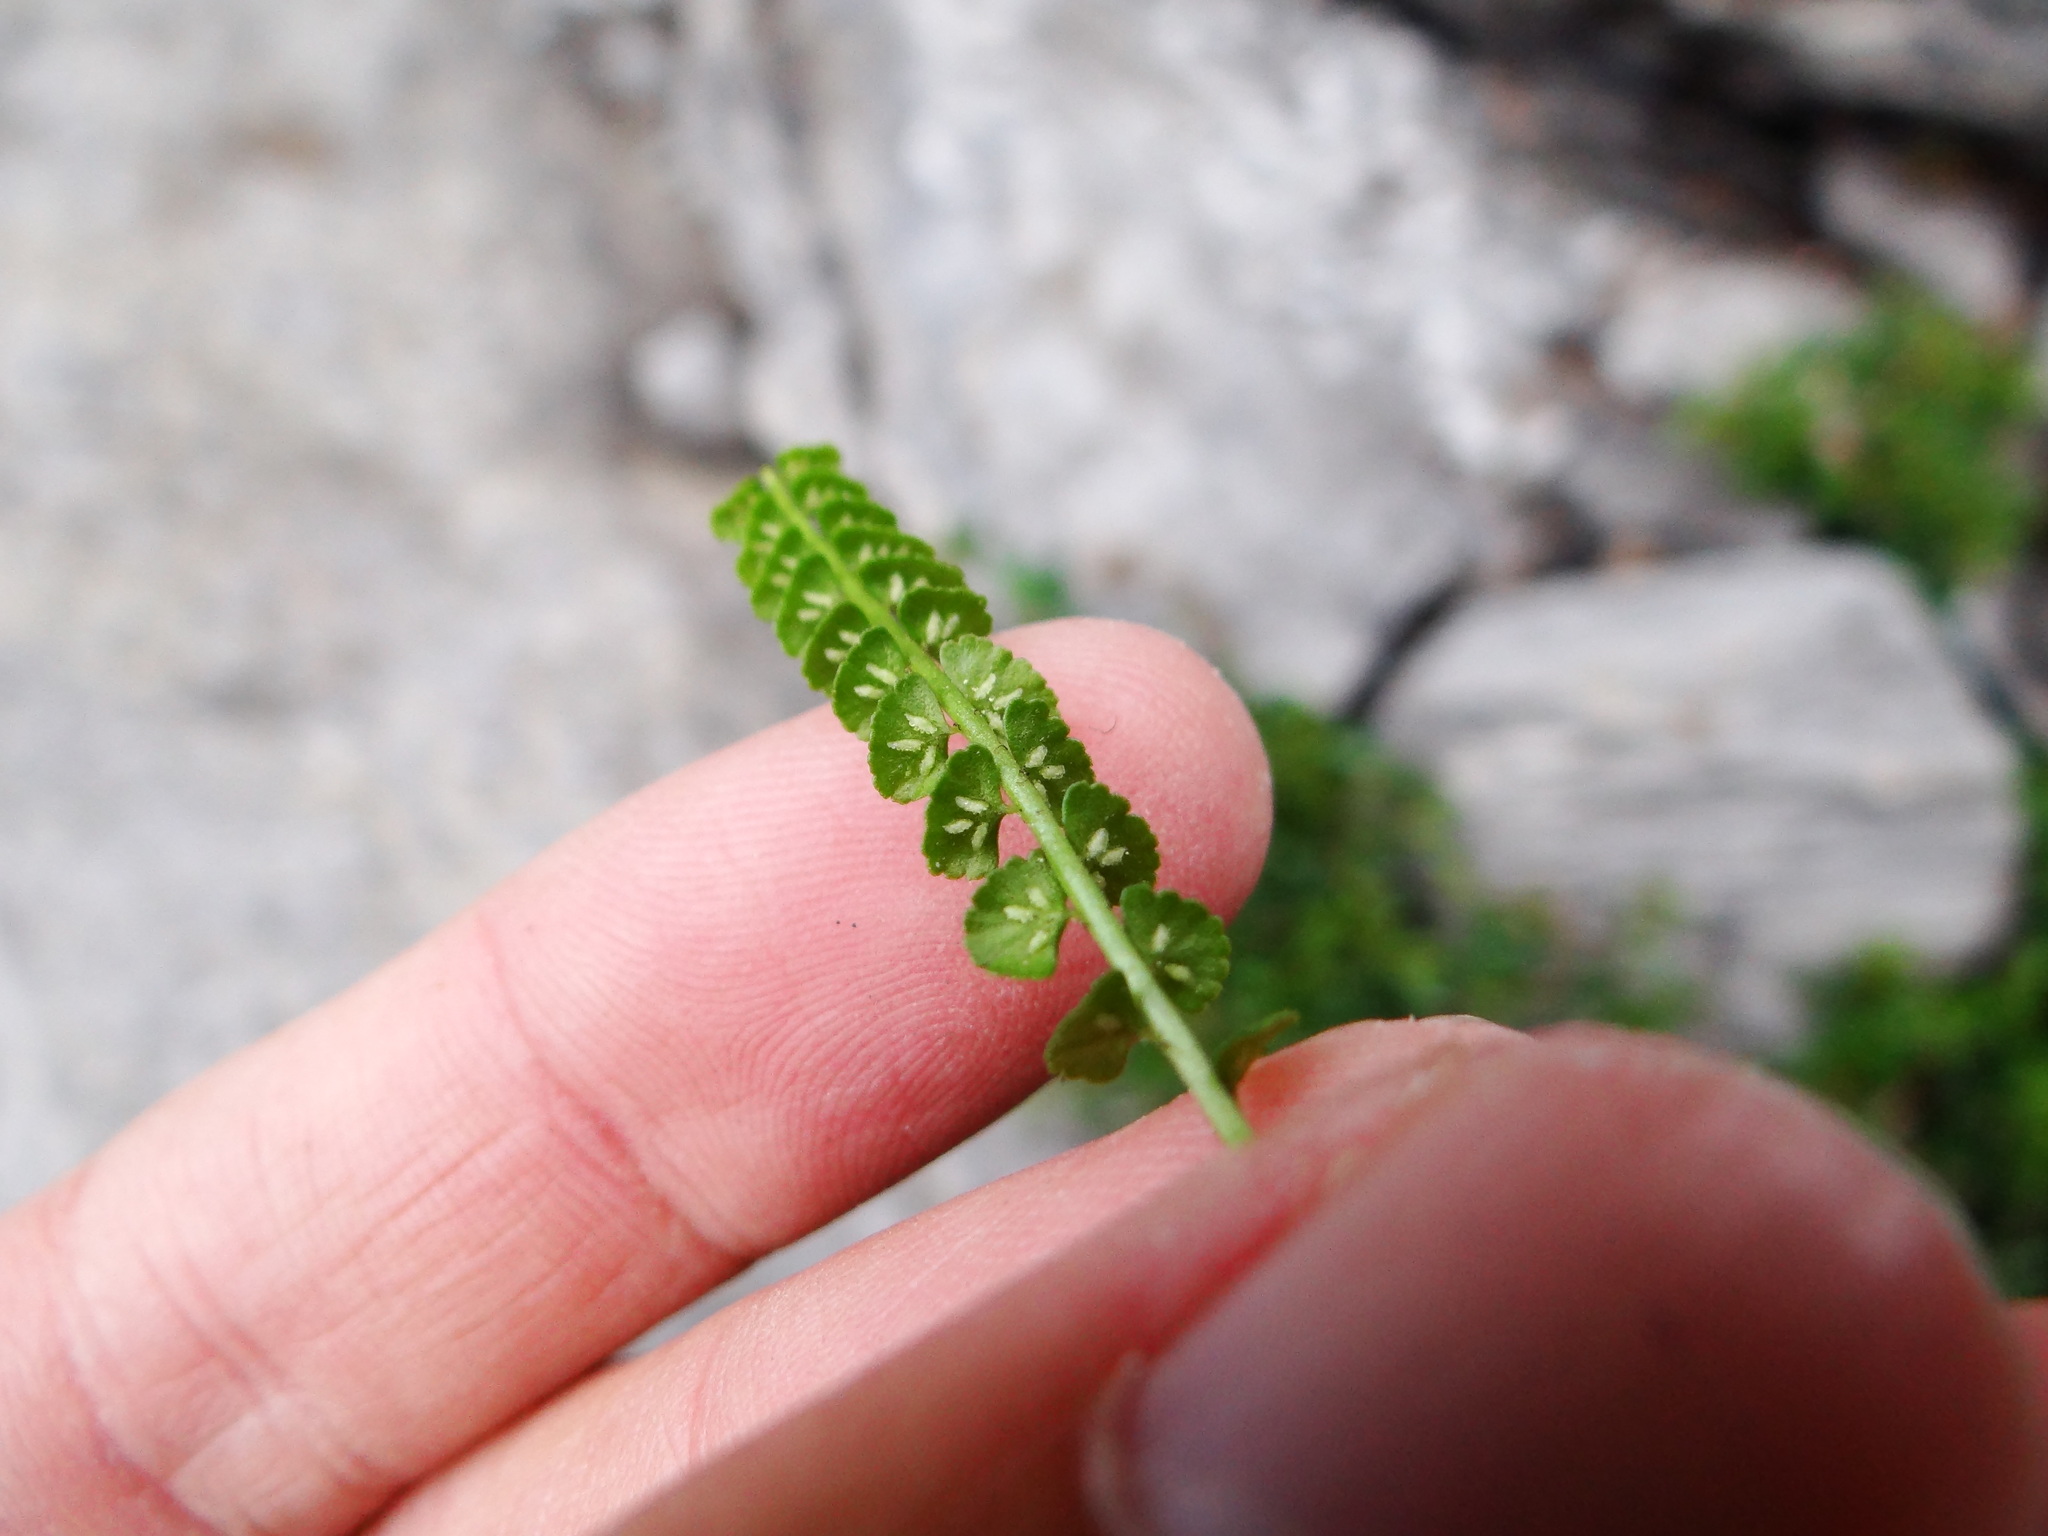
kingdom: Plantae
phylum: Tracheophyta
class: Polypodiopsida
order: Polypodiales
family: Aspleniaceae
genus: Asplenium
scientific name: Asplenium viride
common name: Green spleenwort
